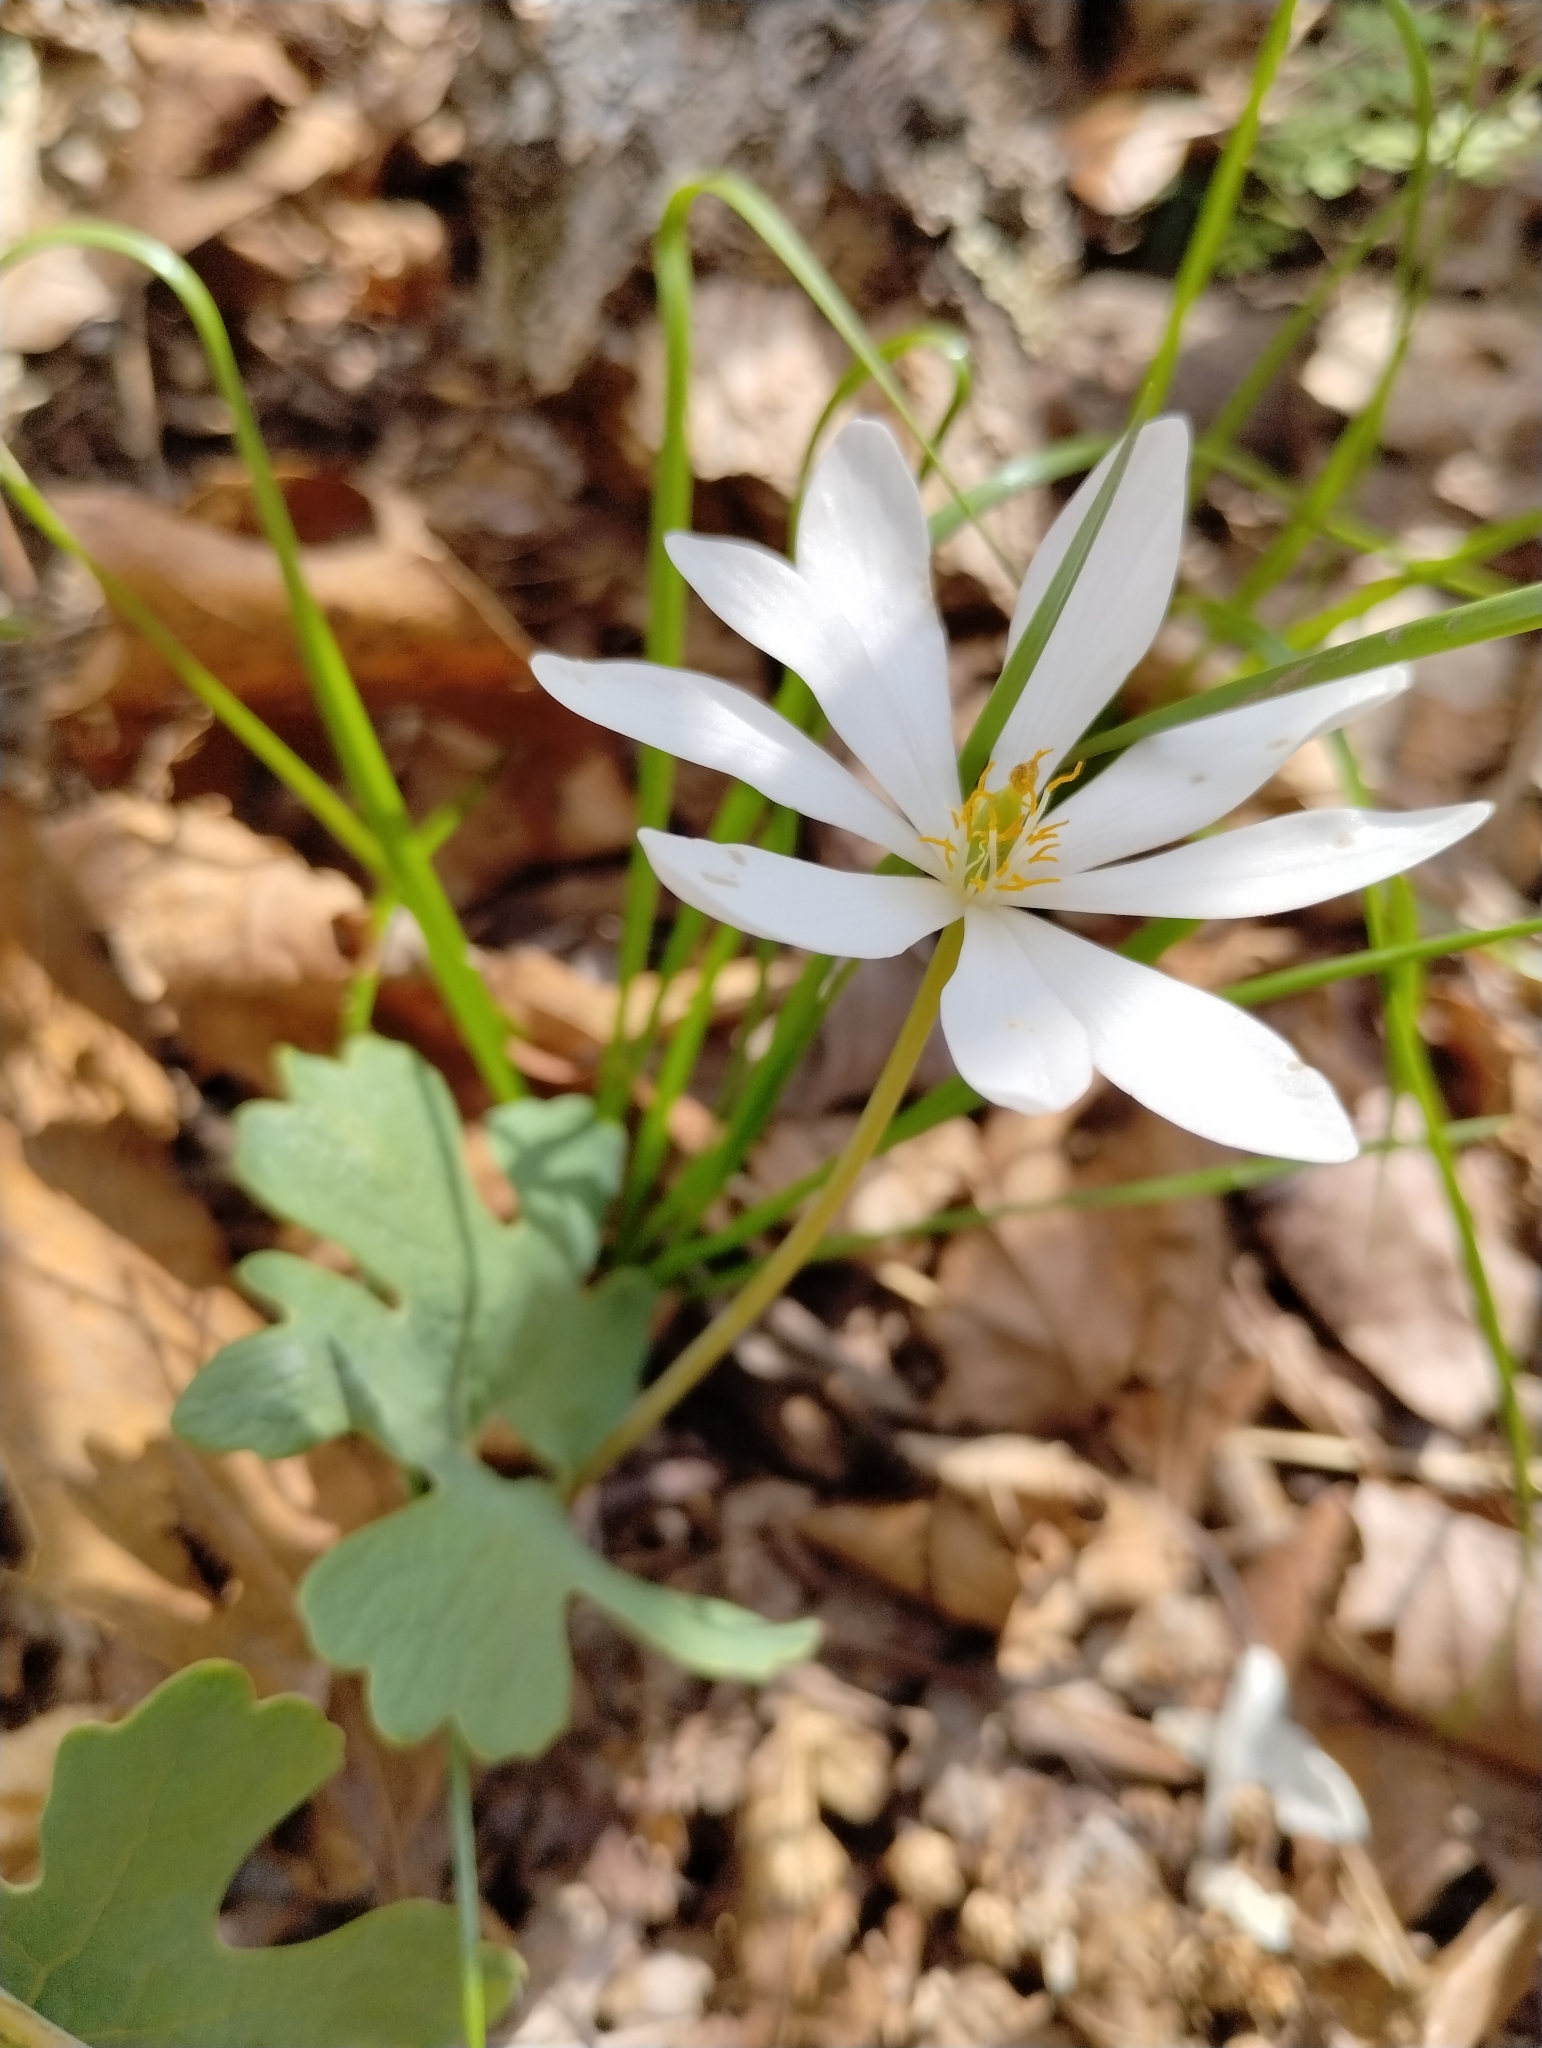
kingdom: Plantae
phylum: Tracheophyta
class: Magnoliopsida
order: Ranunculales
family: Papaveraceae
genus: Sanguinaria
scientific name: Sanguinaria canadensis
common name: Bloodroot
